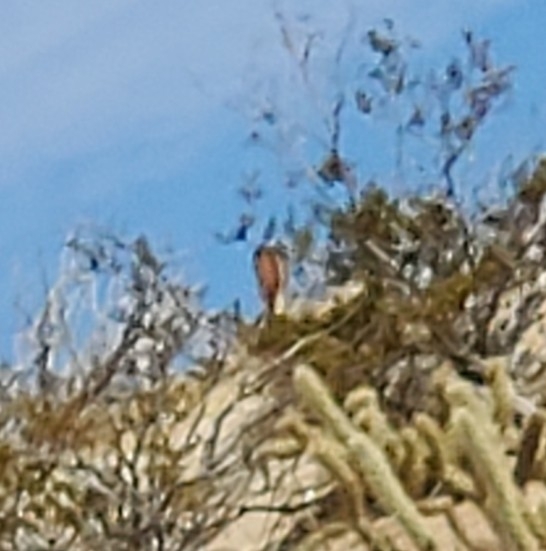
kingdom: Animalia
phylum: Chordata
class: Mammalia
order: Lagomorpha
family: Leporidae
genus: Lepus
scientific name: Lepus californicus
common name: Black-tailed jackrabbit
